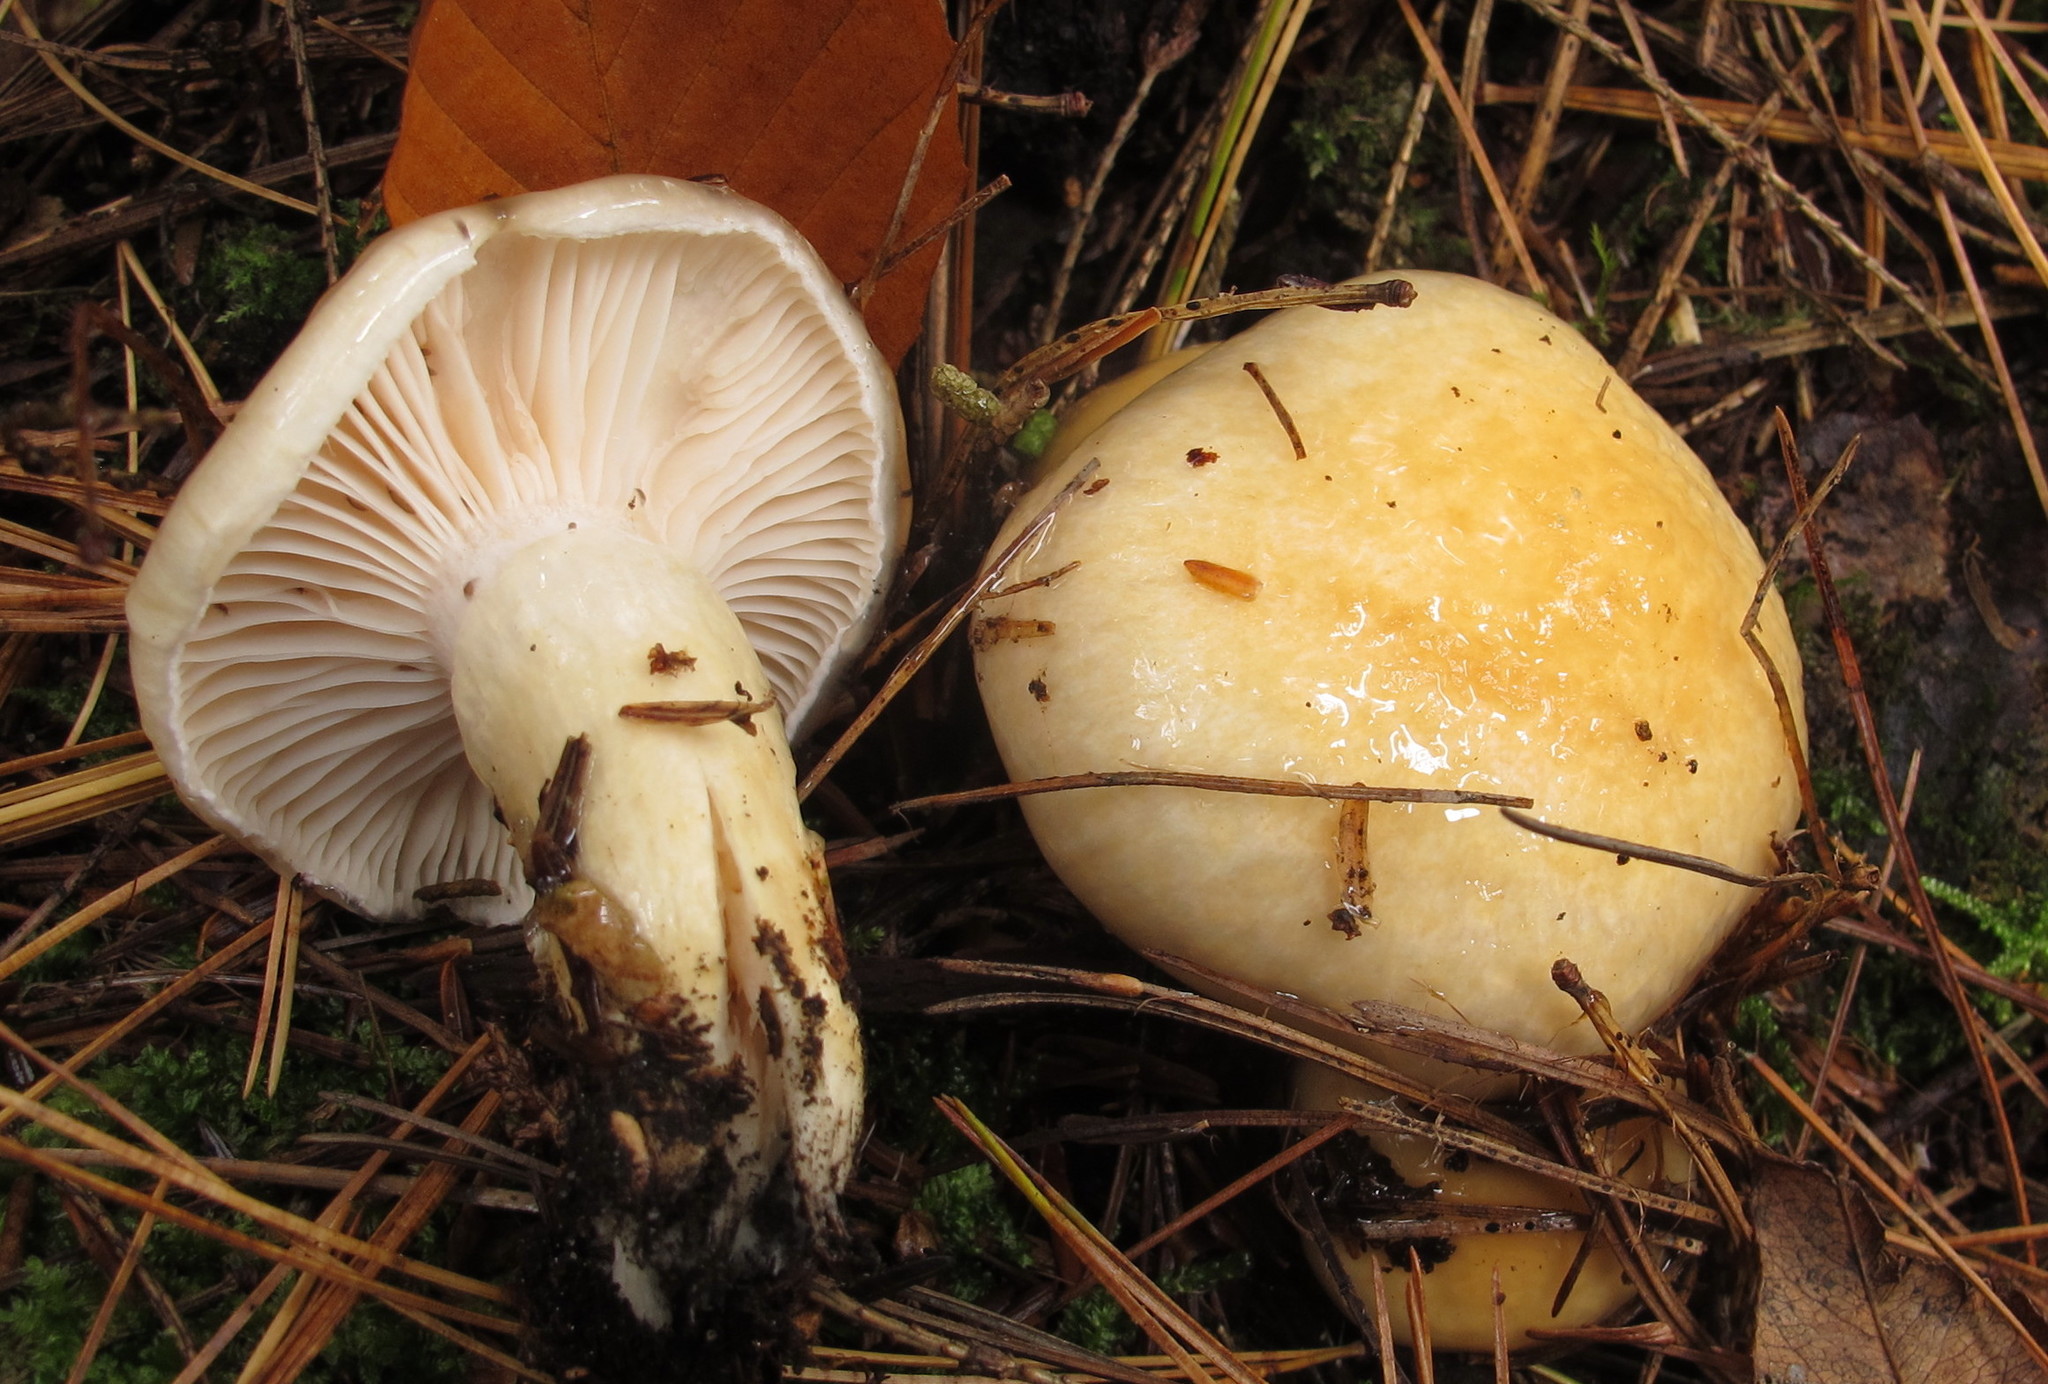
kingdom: Fungi
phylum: Basidiomycota
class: Agaricomycetes
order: Agaricales
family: Hygrophoraceae
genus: Hygrophorus
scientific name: Hygrophorus ligatus
